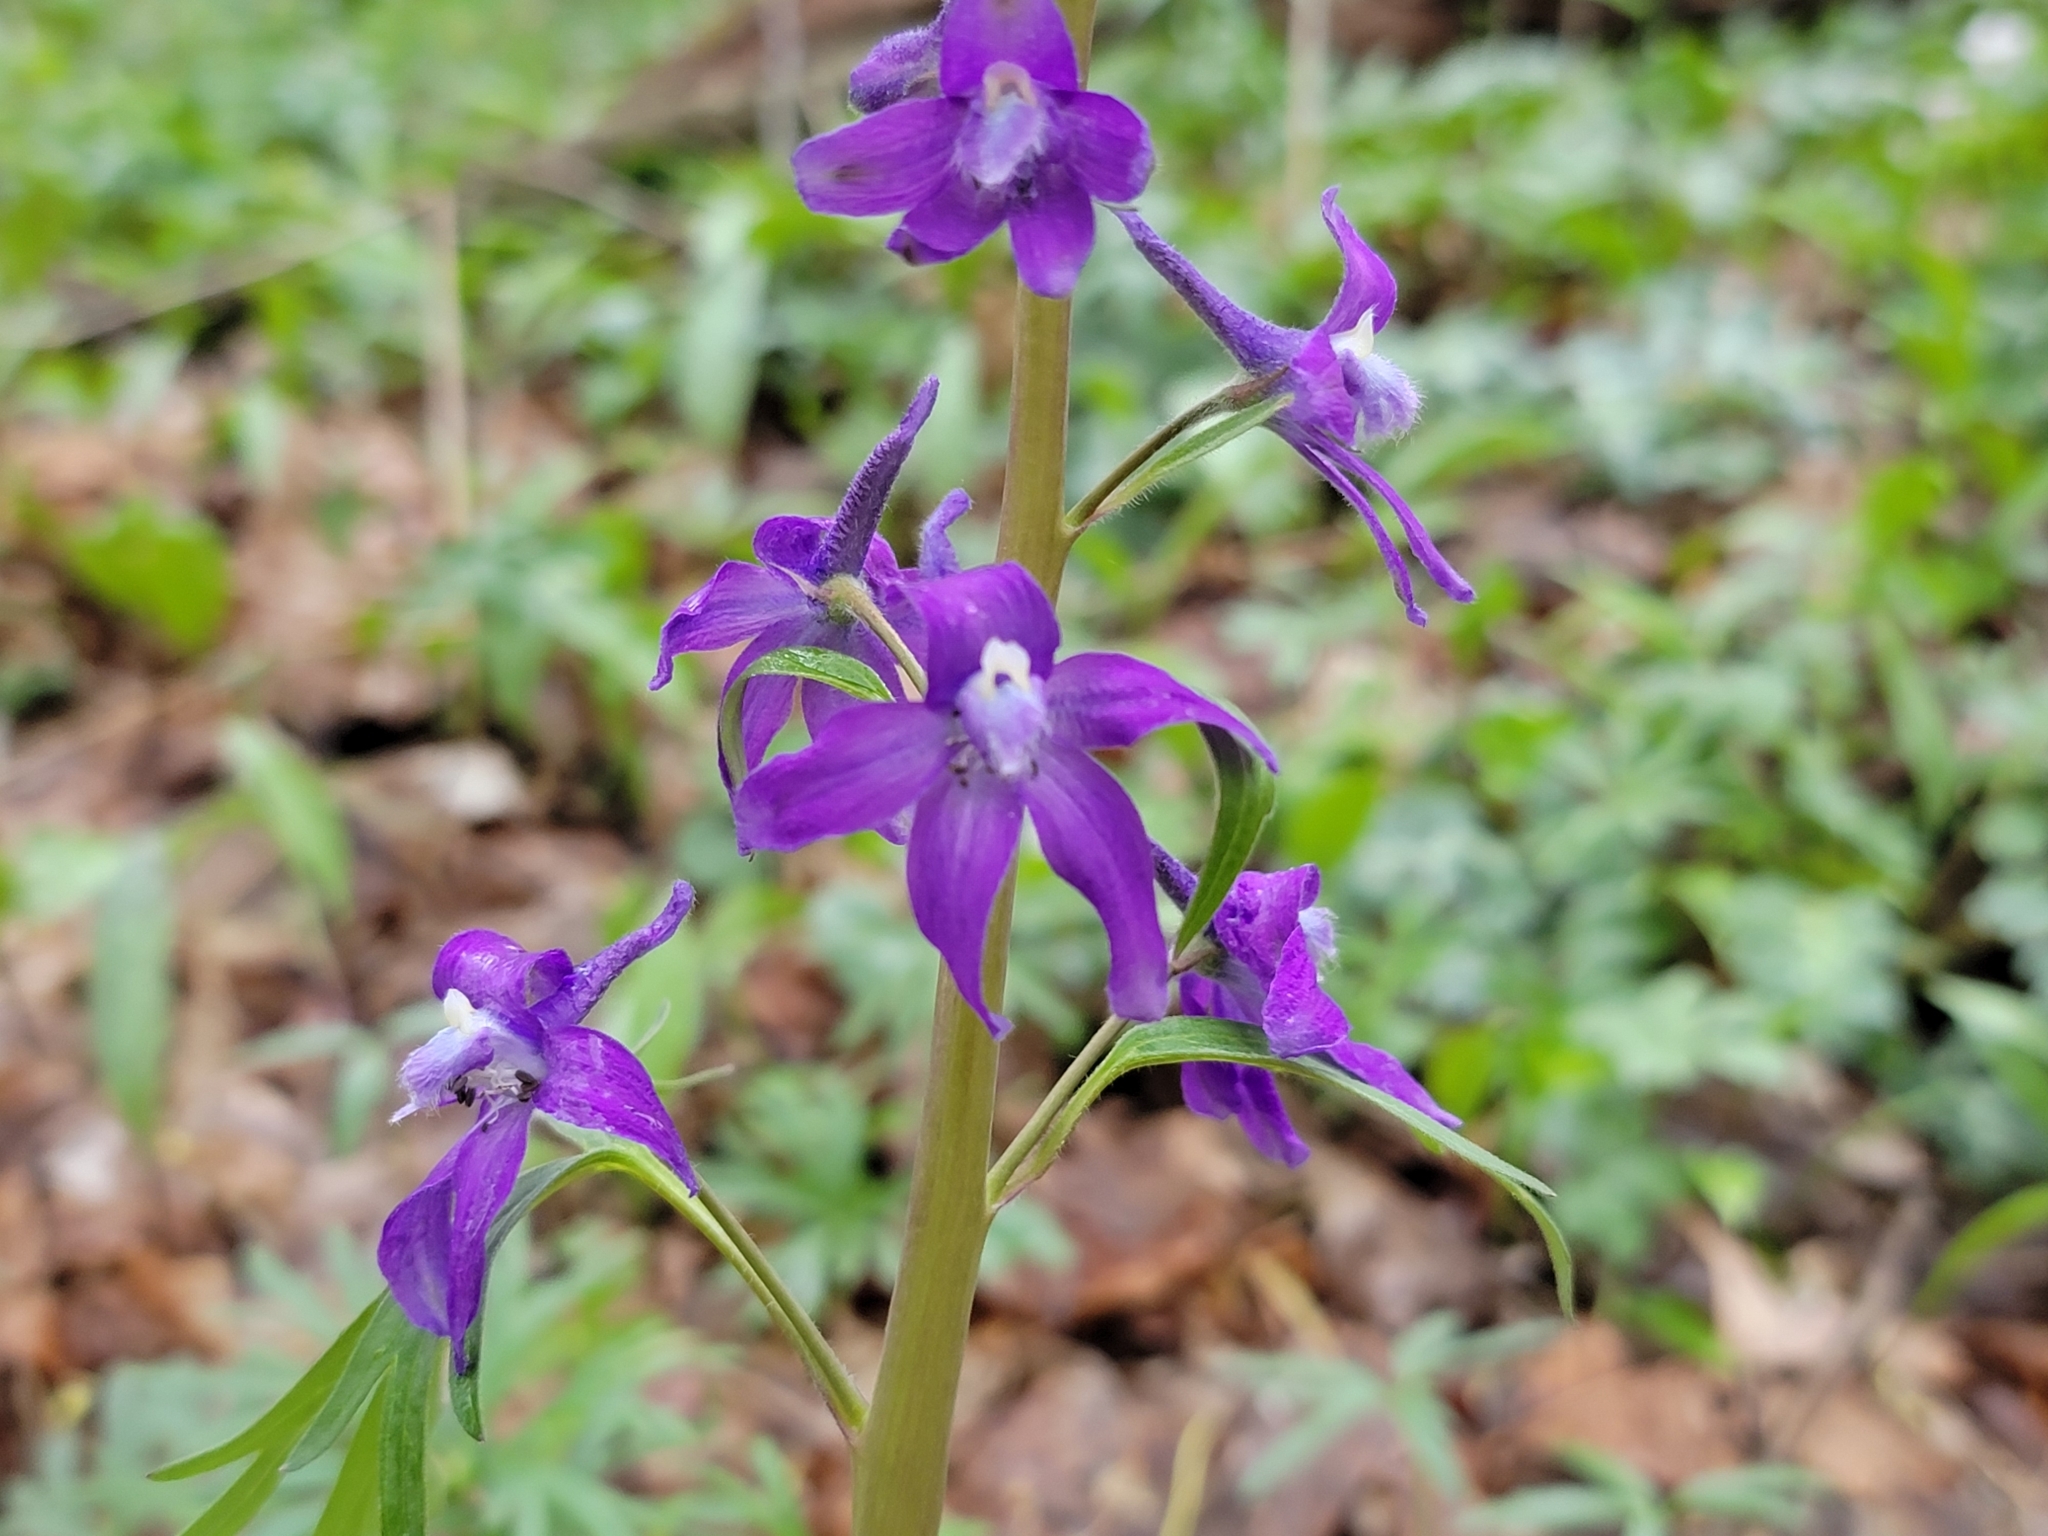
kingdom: Plantae
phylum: Tracheophyta
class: Magnoliopsida
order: Ranunculales
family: Ranunculaceae
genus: Delphinium
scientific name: Delphinium tricorne
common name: Dwarf larkspur
